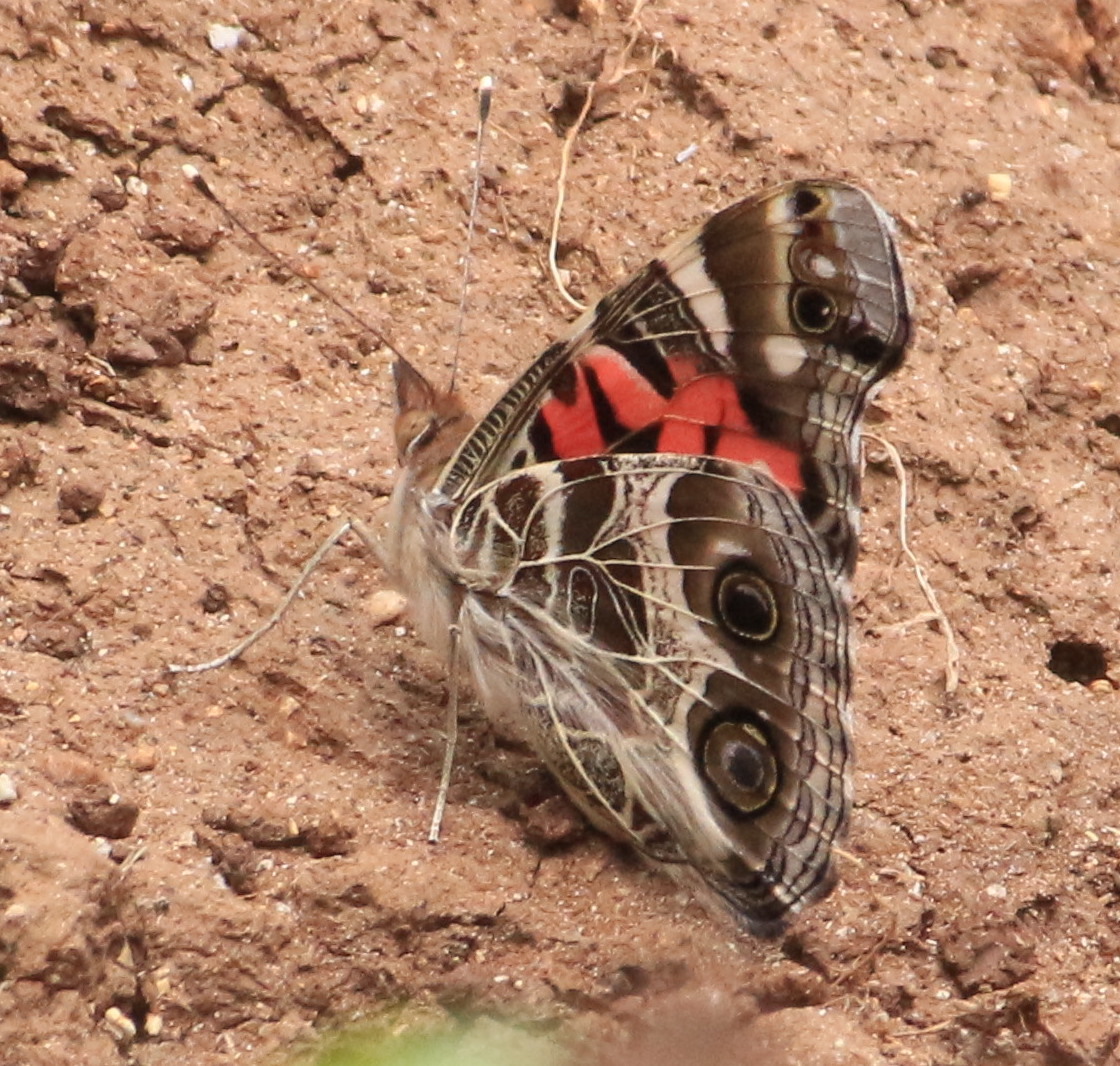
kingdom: Animalia
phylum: Arthropoda
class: Insecta
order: Lepidoptera
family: Nymphalidae
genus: Vanessa
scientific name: Vanessa virginiensis
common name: American lady
